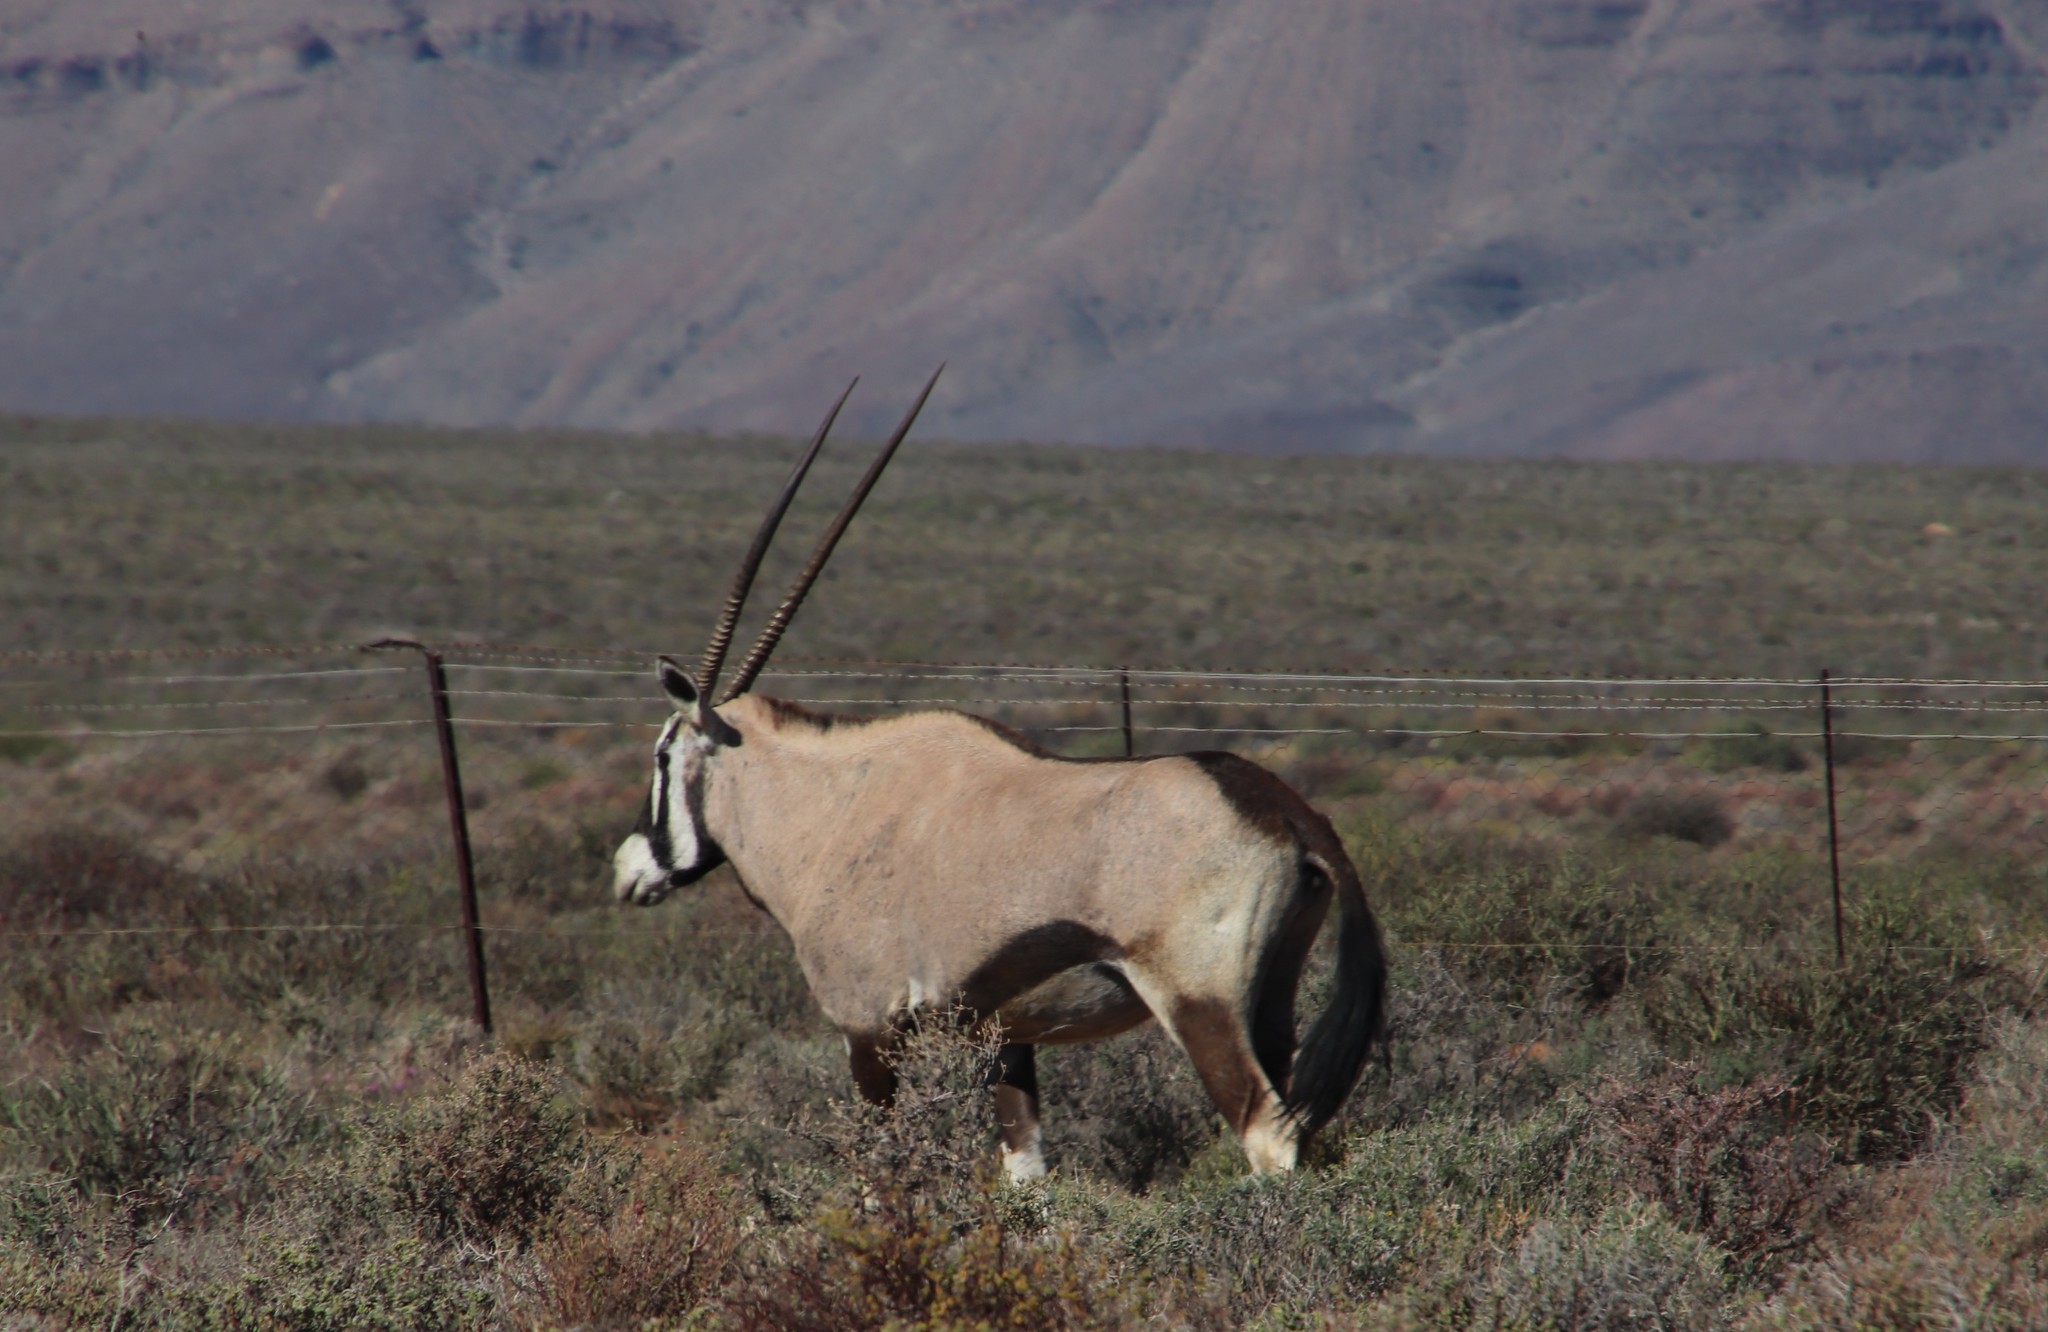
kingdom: Animalia
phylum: Chordata
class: Mammalia
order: Artiodactyla
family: Bovidae
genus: Oryx
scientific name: Oryx gazella
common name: Gemsbok
